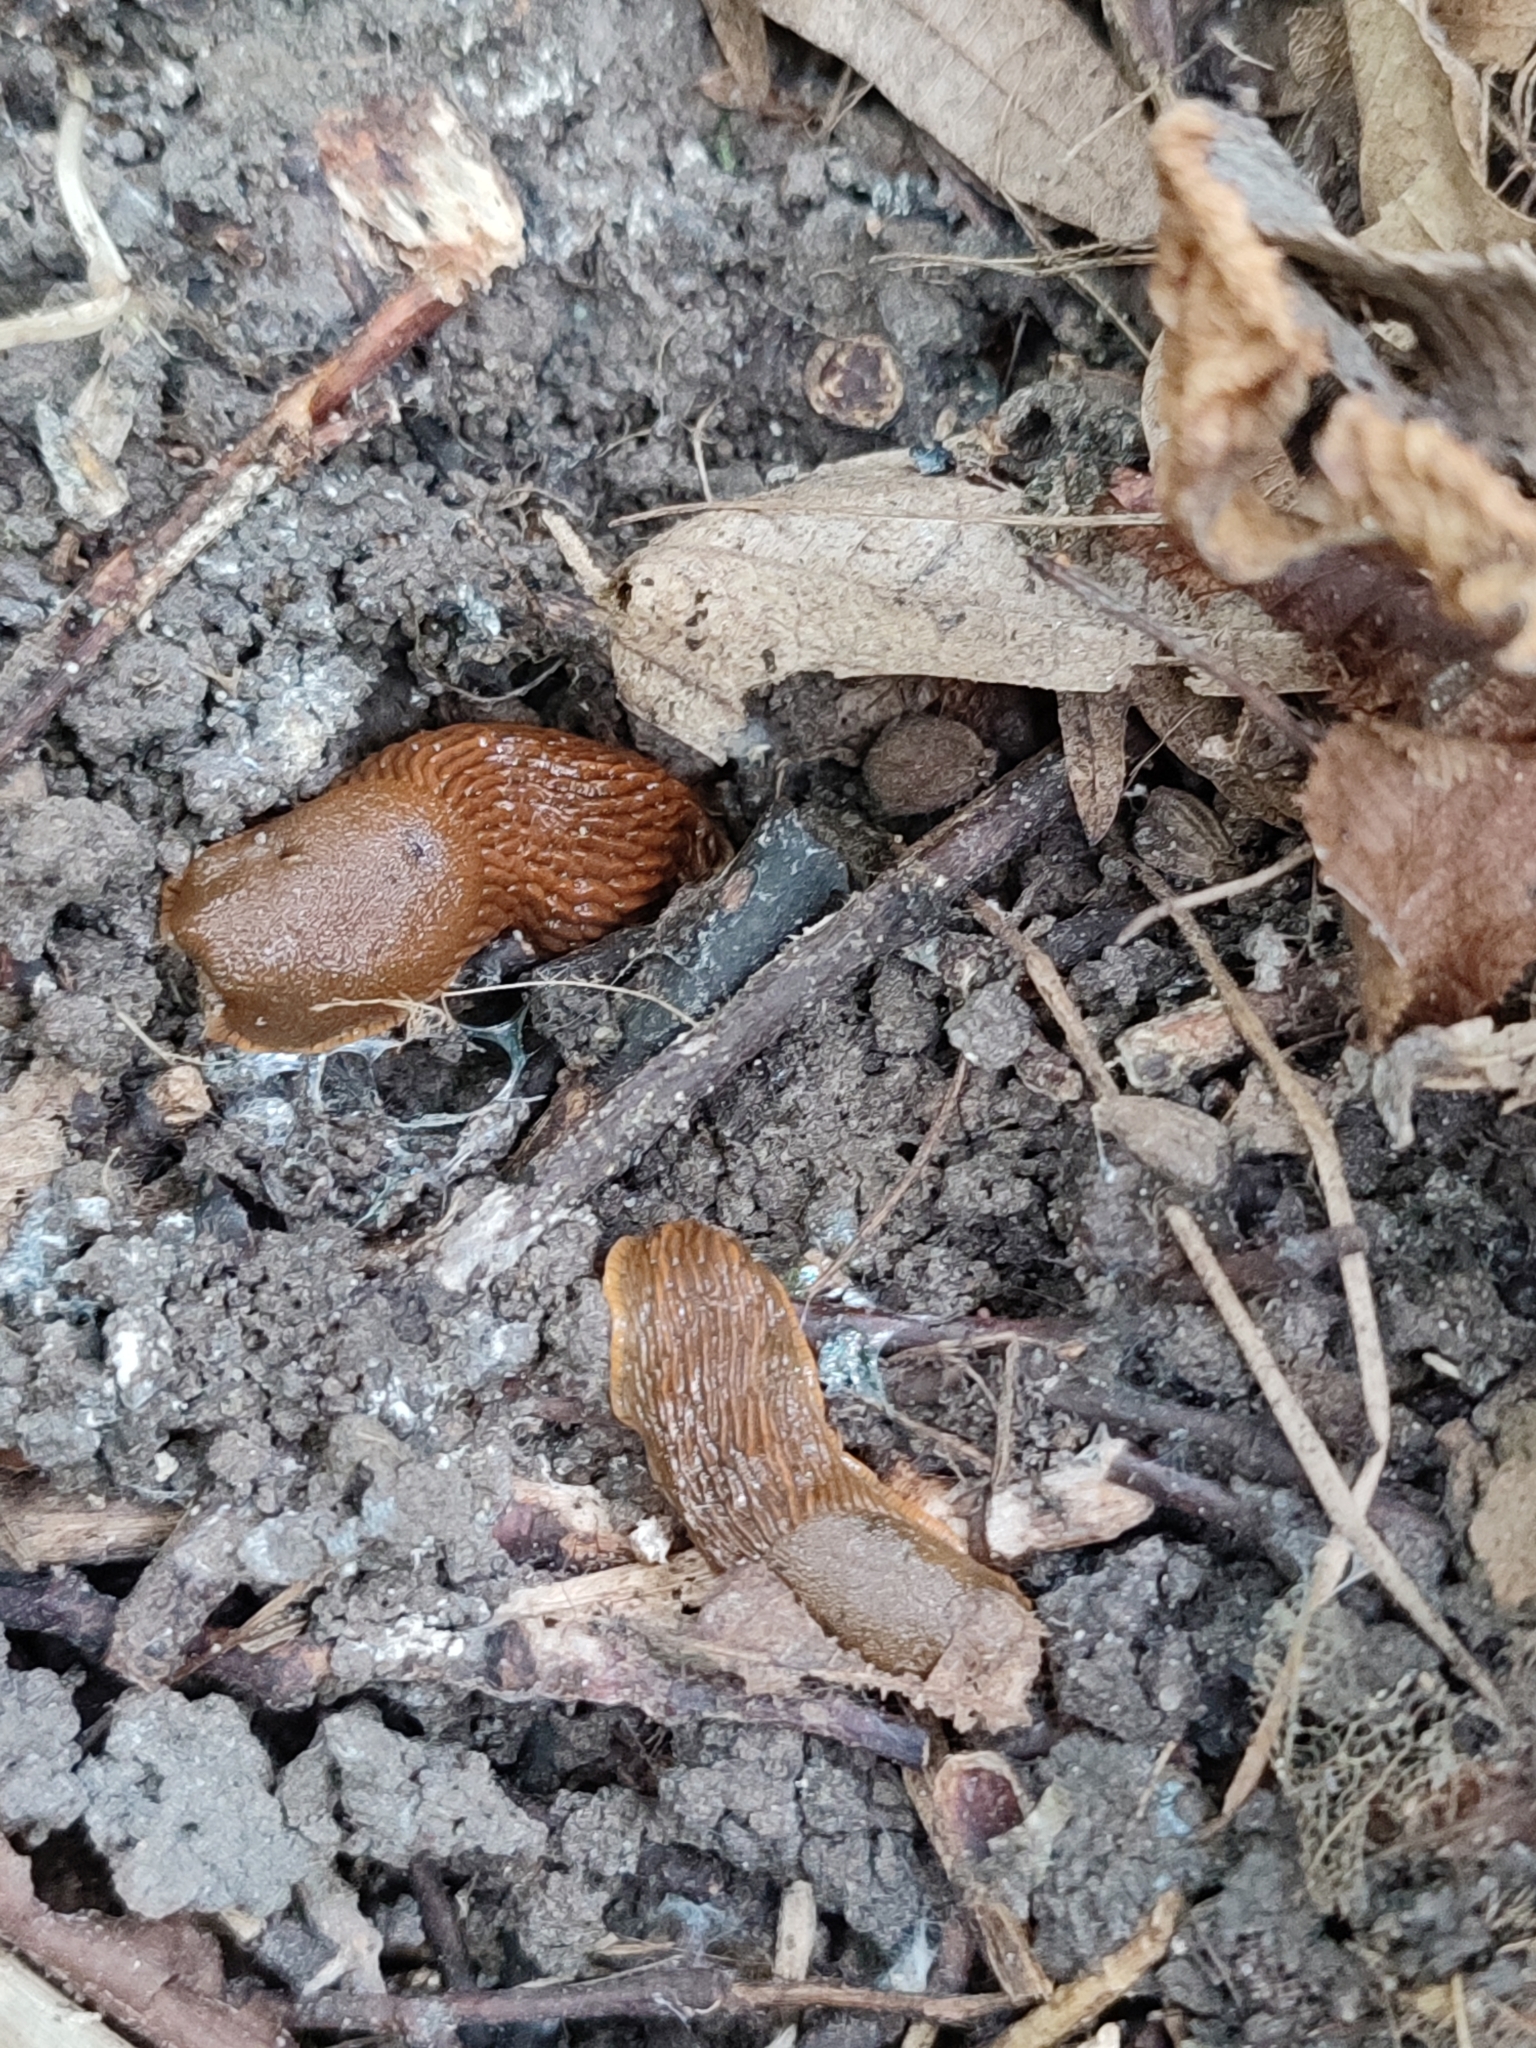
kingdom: Animalia
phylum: Mollusca
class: Gastropoda
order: Stylommatophora
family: Arionidae
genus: Arion
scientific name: Arion vulgaris
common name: Lusitanian slug
